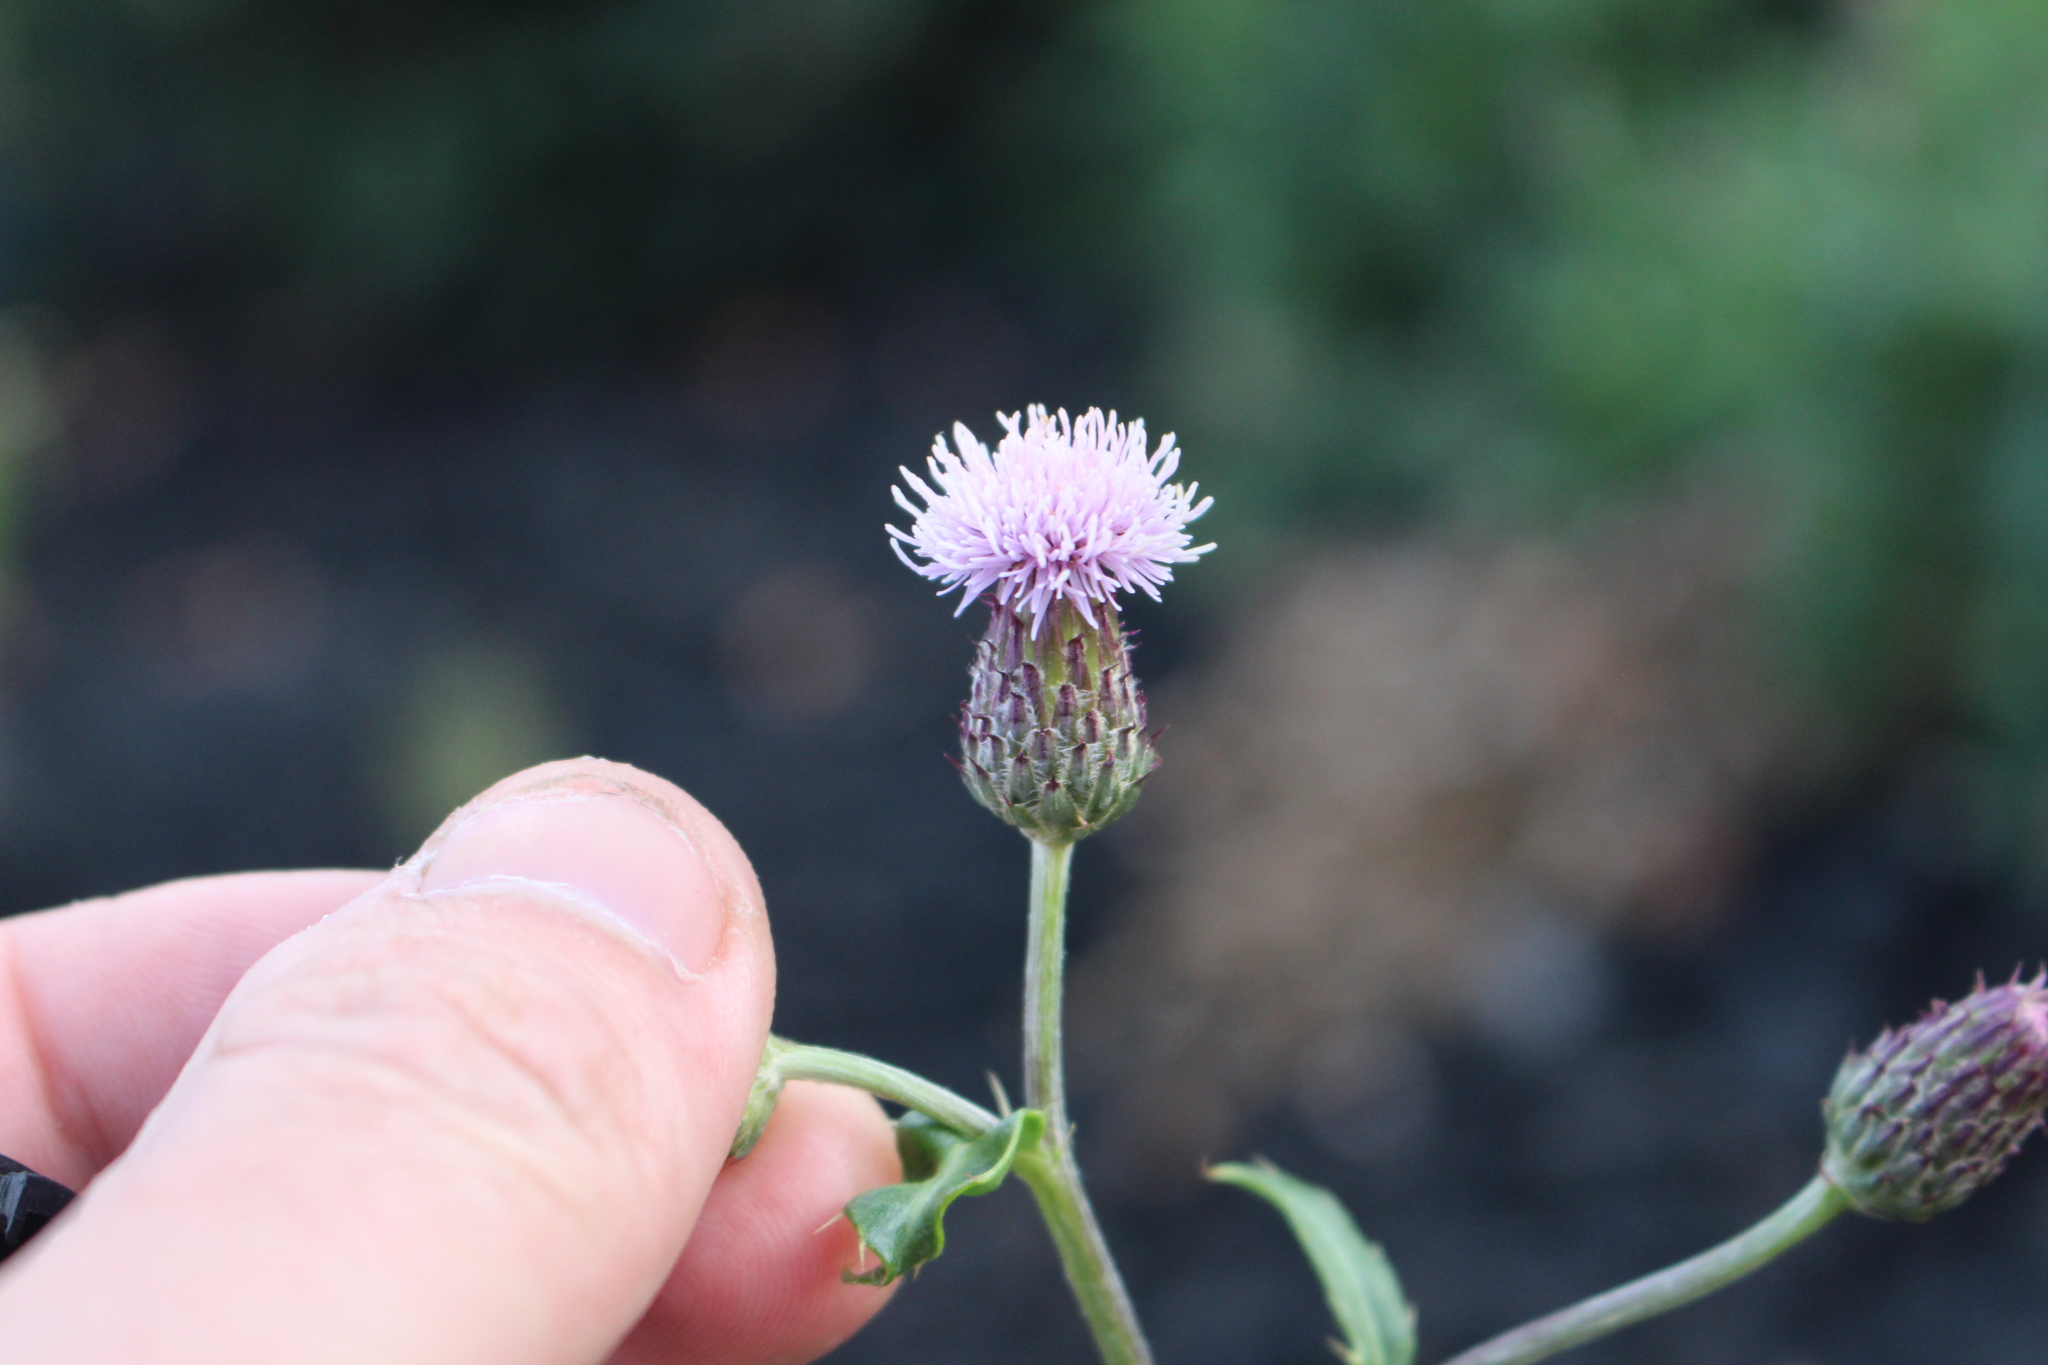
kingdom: Plantae
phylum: Tracheophyta
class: Magnoliopsida
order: Asterales
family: Asteraceae
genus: Cirsium
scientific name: Cirsium arvense
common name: Creeping thistle
